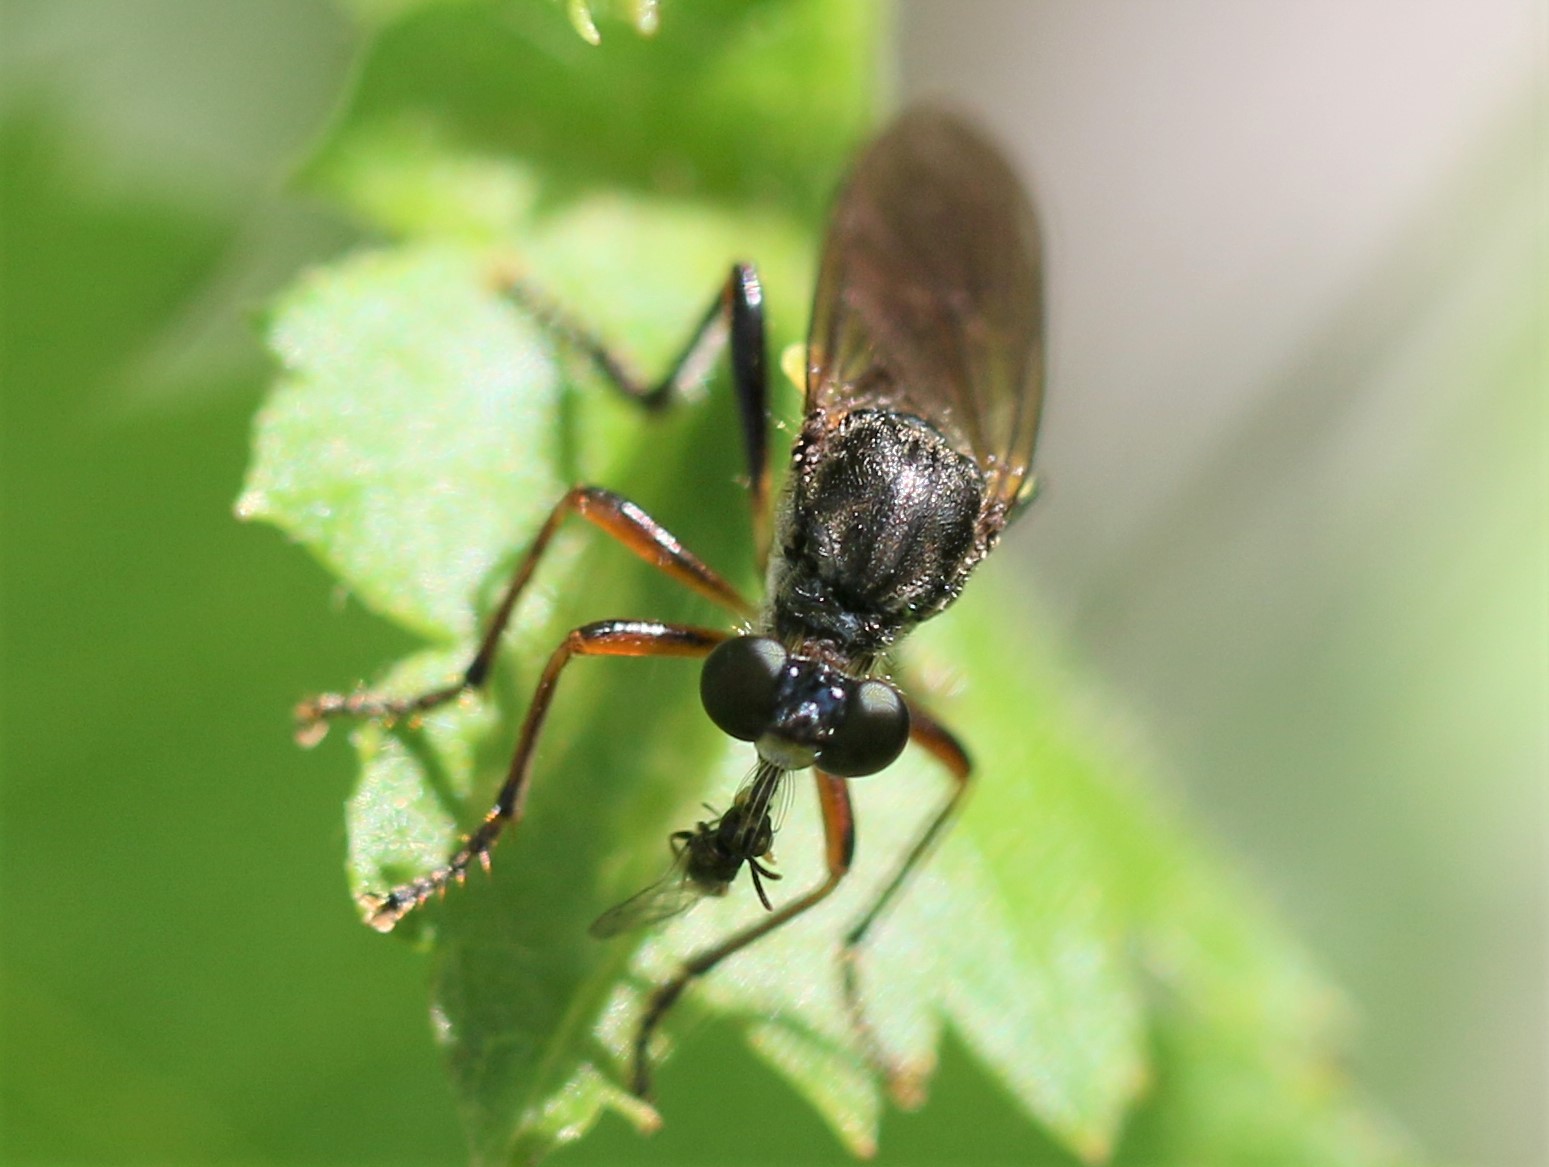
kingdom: Animalia
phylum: Arthropoda
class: Insecta
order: Diptera
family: Asilidae
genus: Dioctria
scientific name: Dioctria hyalipennis
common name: Stripe-legged robberfly
